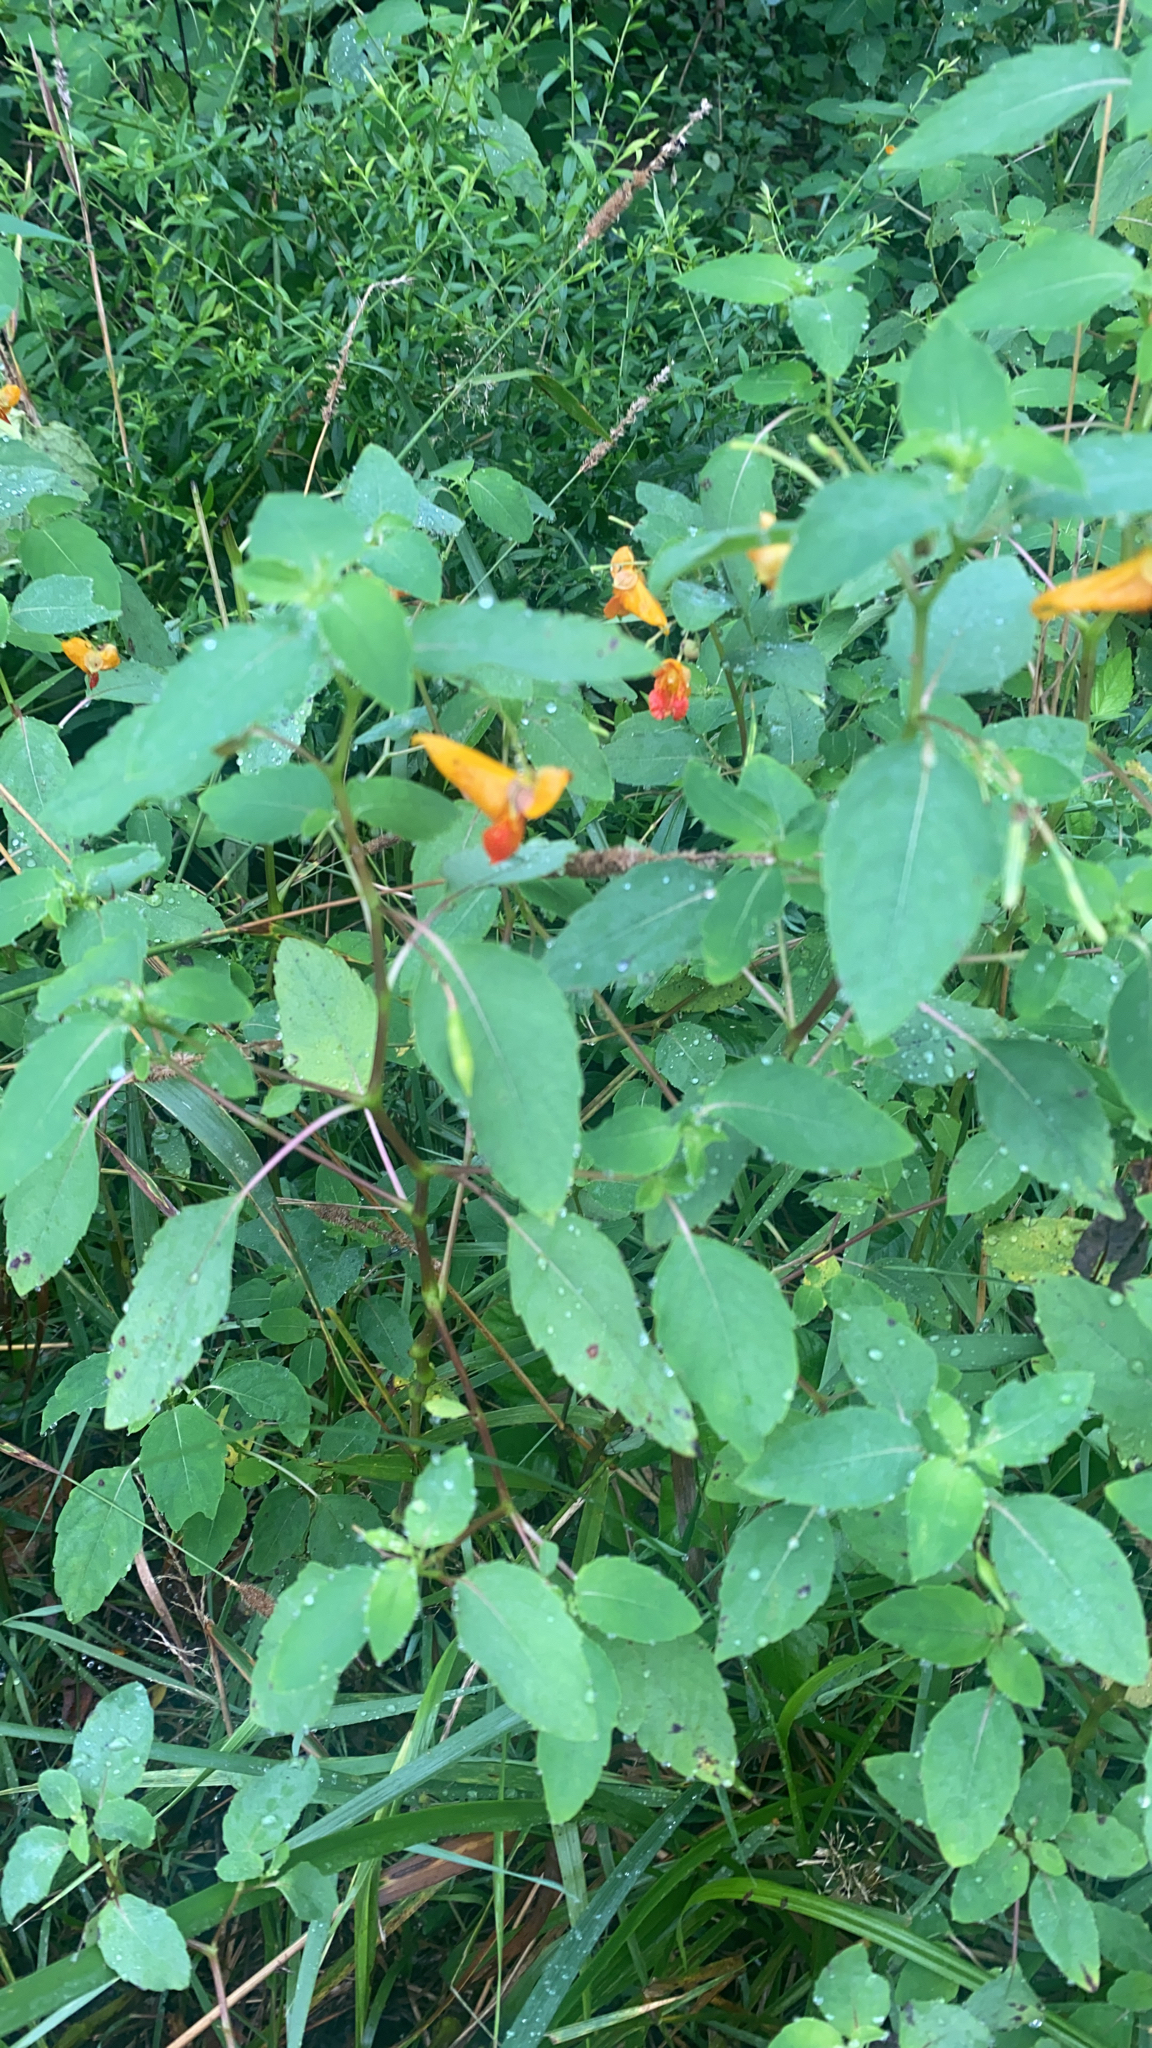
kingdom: Plantae
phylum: Tracheophyta
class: Magnoliopsida
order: Ericales
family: Balsaminaceae
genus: Impatiens
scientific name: Impatiens capensis
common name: Orange balsam
